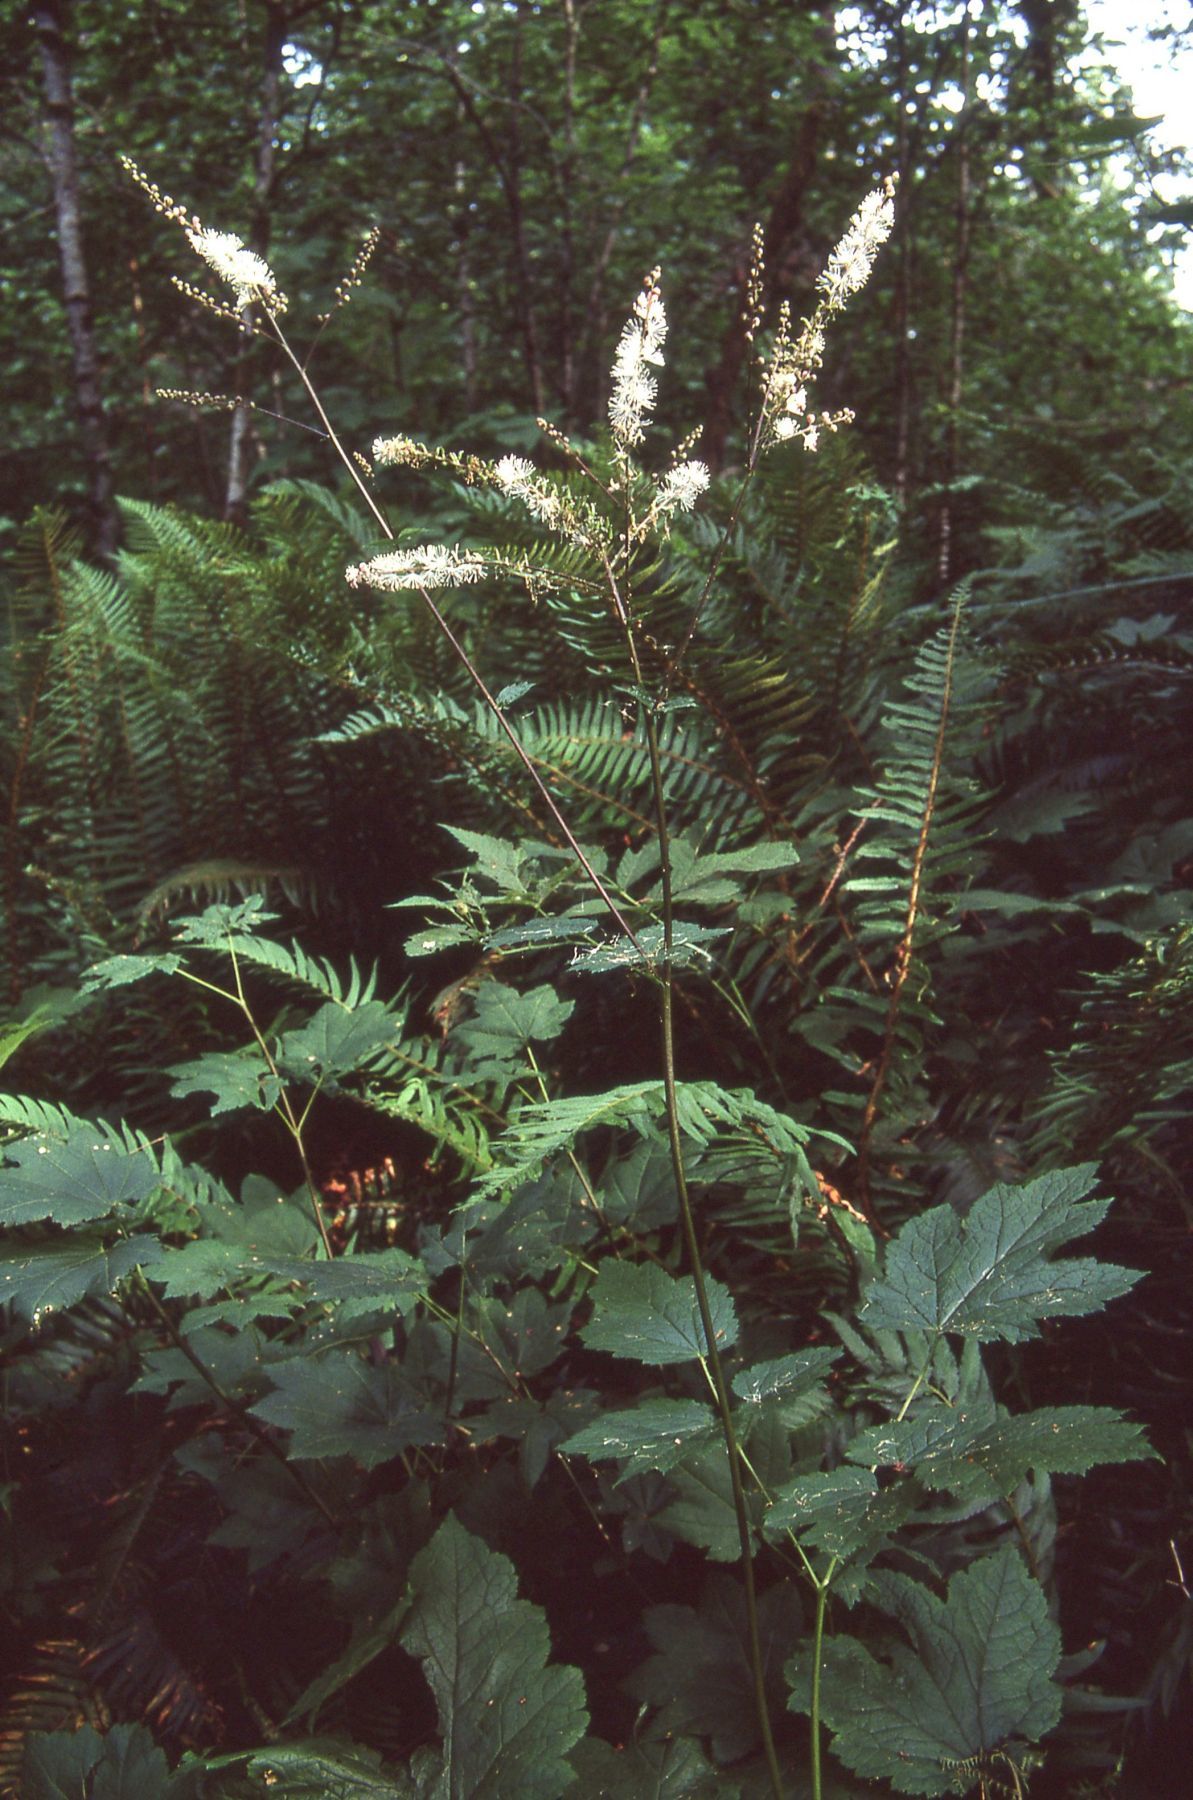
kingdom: Plantae
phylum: Tracheophyta
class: Magnoliopsida
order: Ranunculales
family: Ranunculaceae
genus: Actaea
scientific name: Actaea elata
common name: Tall bugbane
